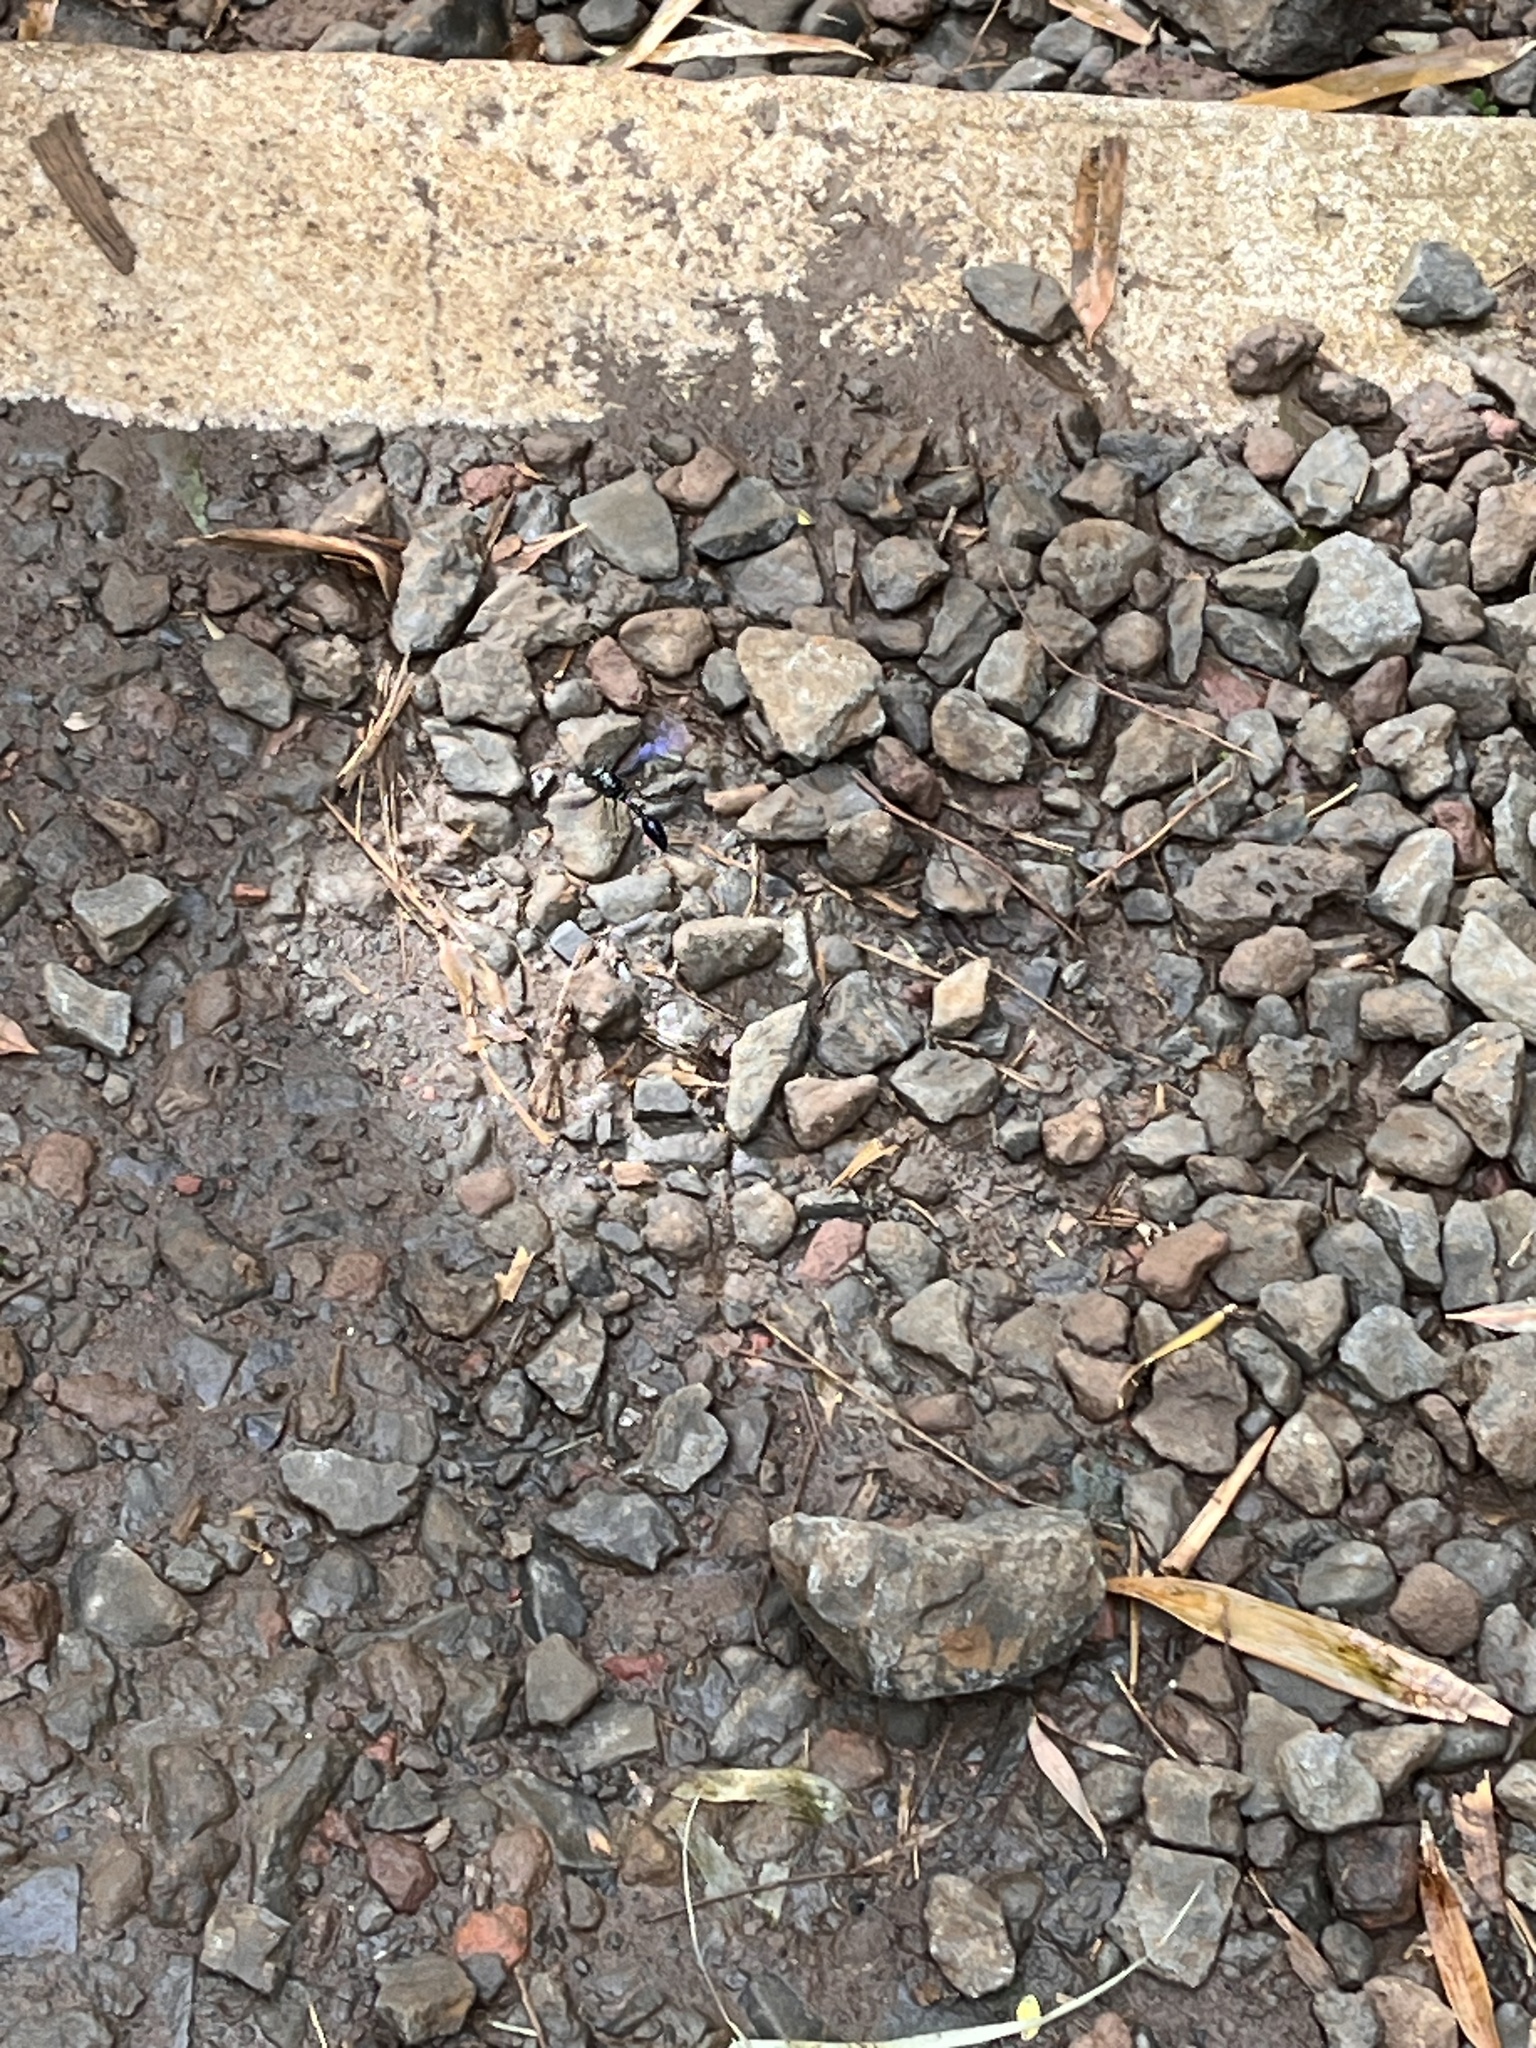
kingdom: Animalia
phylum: Arthropoda
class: Insecta
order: Hymenoptera
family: Eumenidae
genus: Phimenes
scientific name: Phimenes curvatus
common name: Black delta vespid wasp
